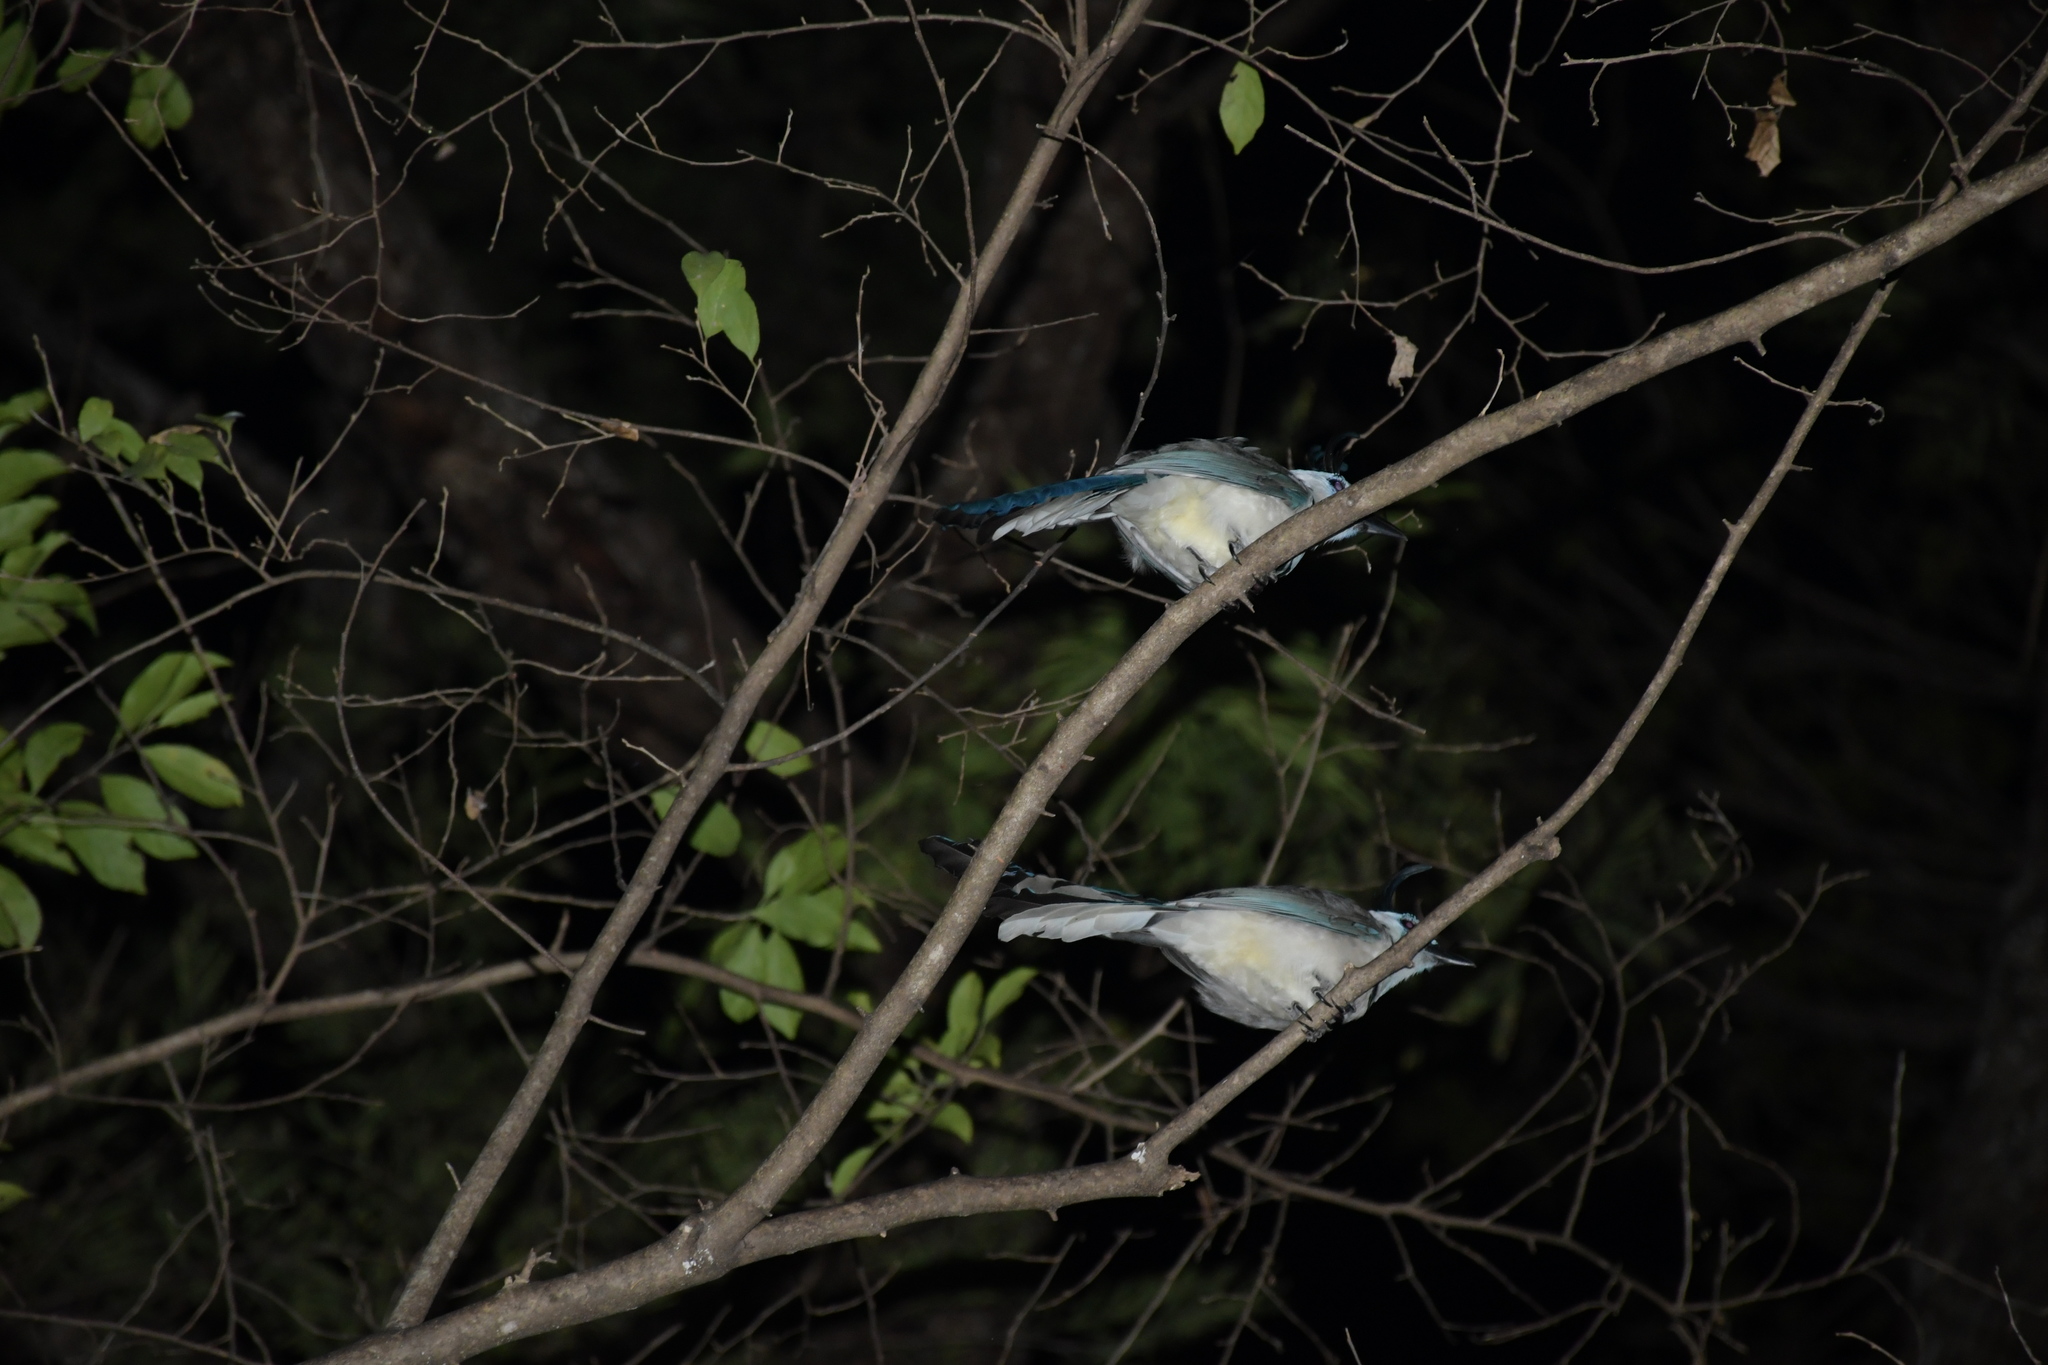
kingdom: Animalia
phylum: Chordata
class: Aves
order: Passeriformes
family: Corvidae
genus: Calocitta
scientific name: Calocitta formosa
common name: White-throated magpie-jay
